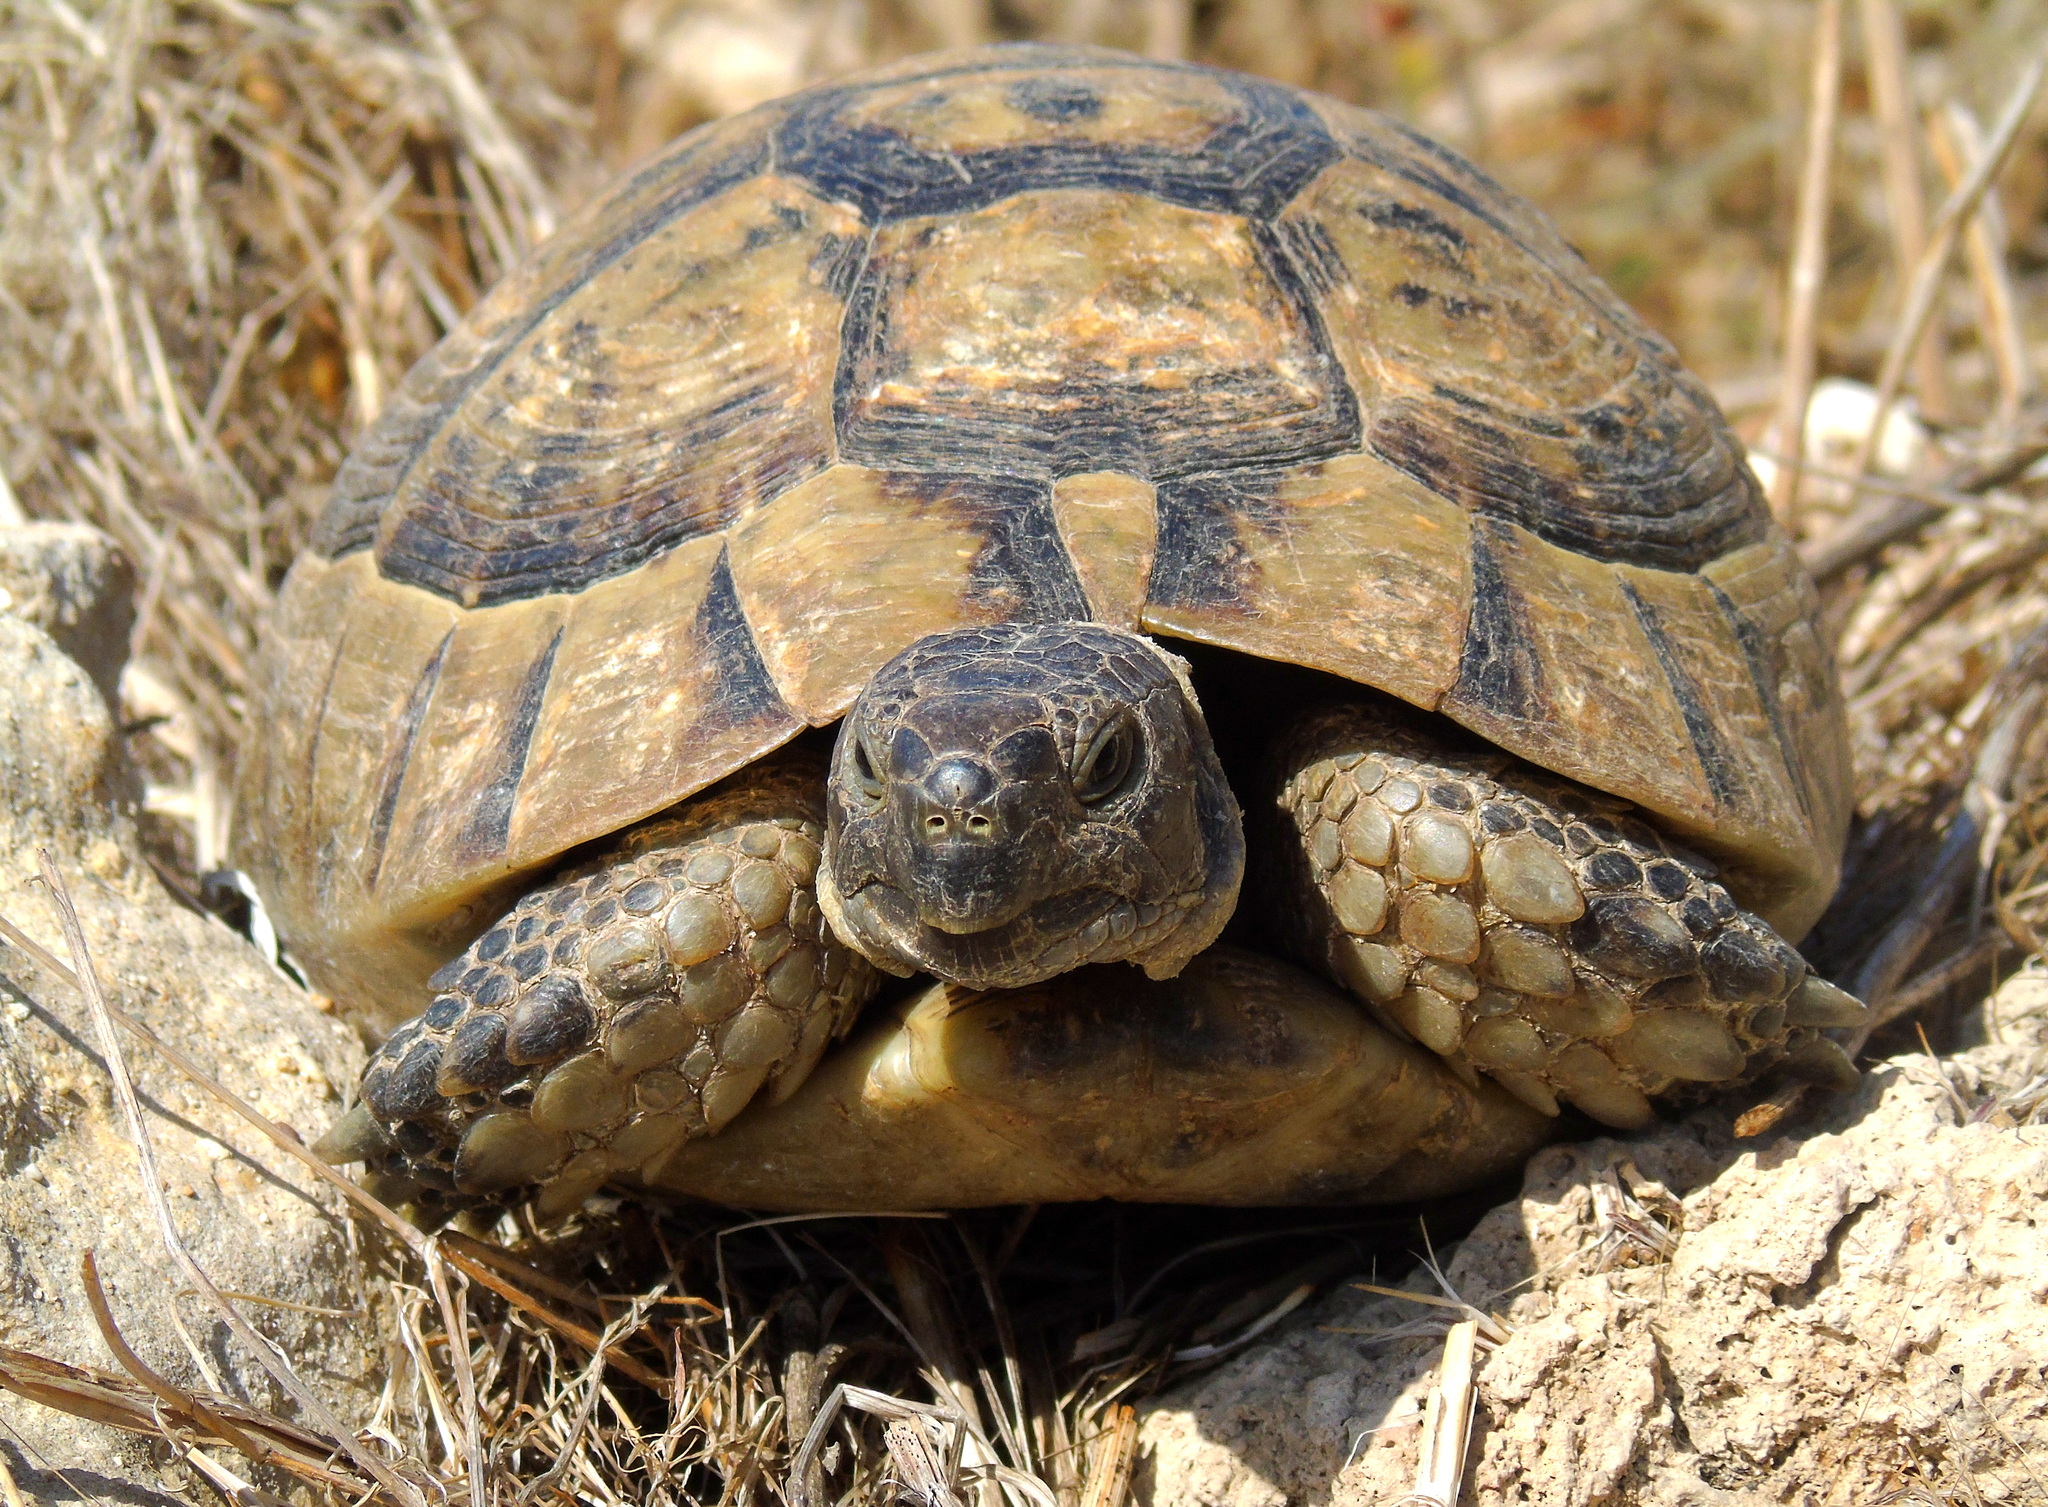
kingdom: Animalia
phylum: Chordata
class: Testudines
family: Testudinidae
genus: Testudo
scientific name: Testudo graeca
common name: Common tortoise
